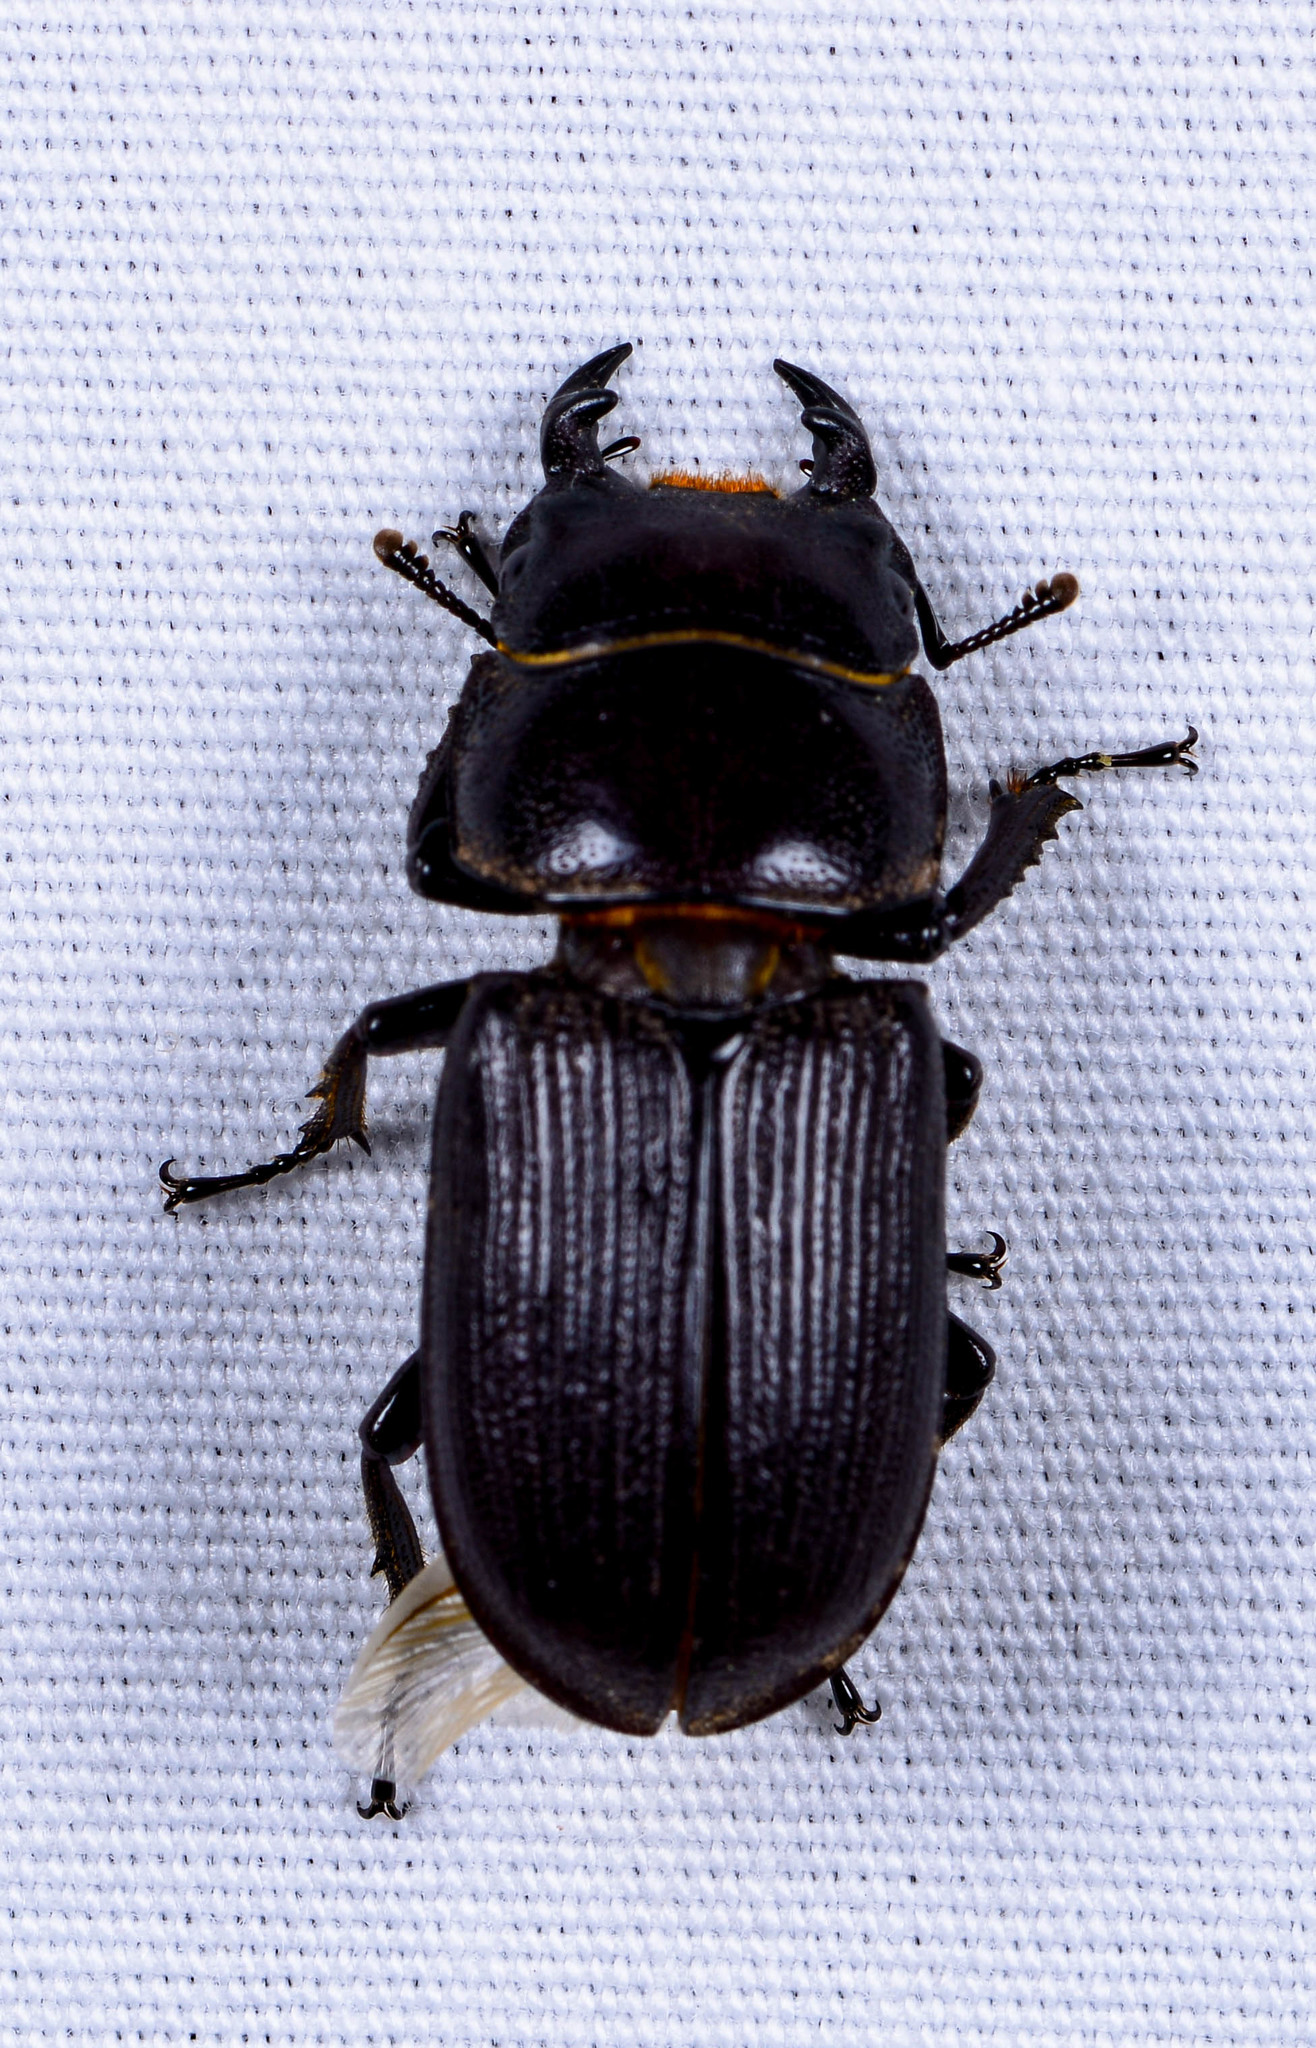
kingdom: Animalia
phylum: Arthropoda
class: Insecta
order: Coleoptera
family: Lucanidae
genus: Dorcus
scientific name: Dorcus parallelus
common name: Antelope beetle
